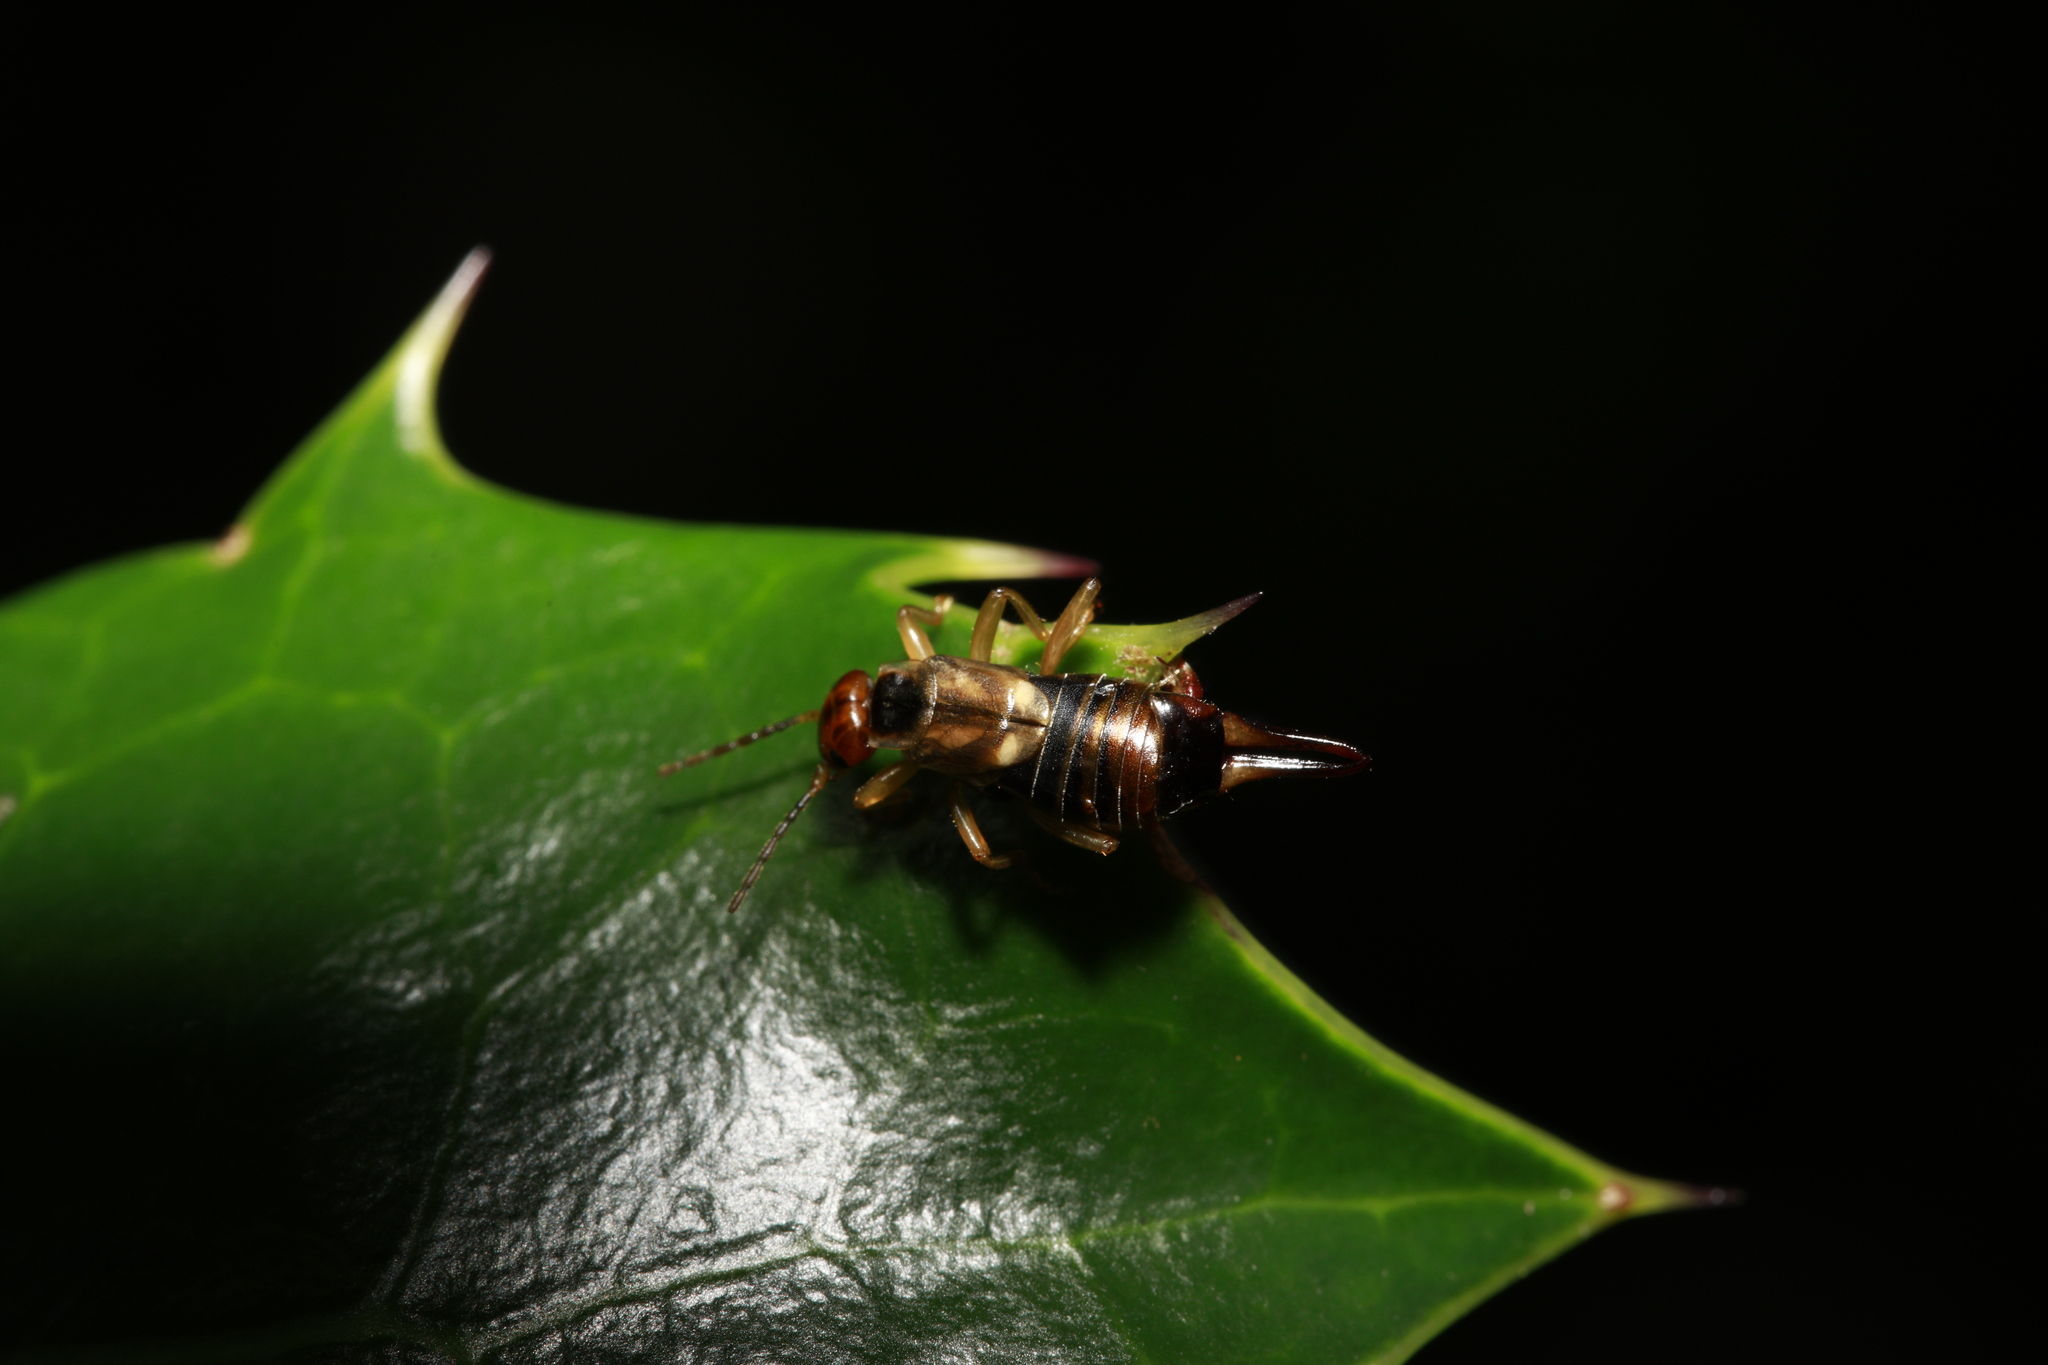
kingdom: Animalia
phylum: Arthropoda
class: Insecta
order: Dermaptera
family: Forficulidae
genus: Forficula
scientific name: Forficula
